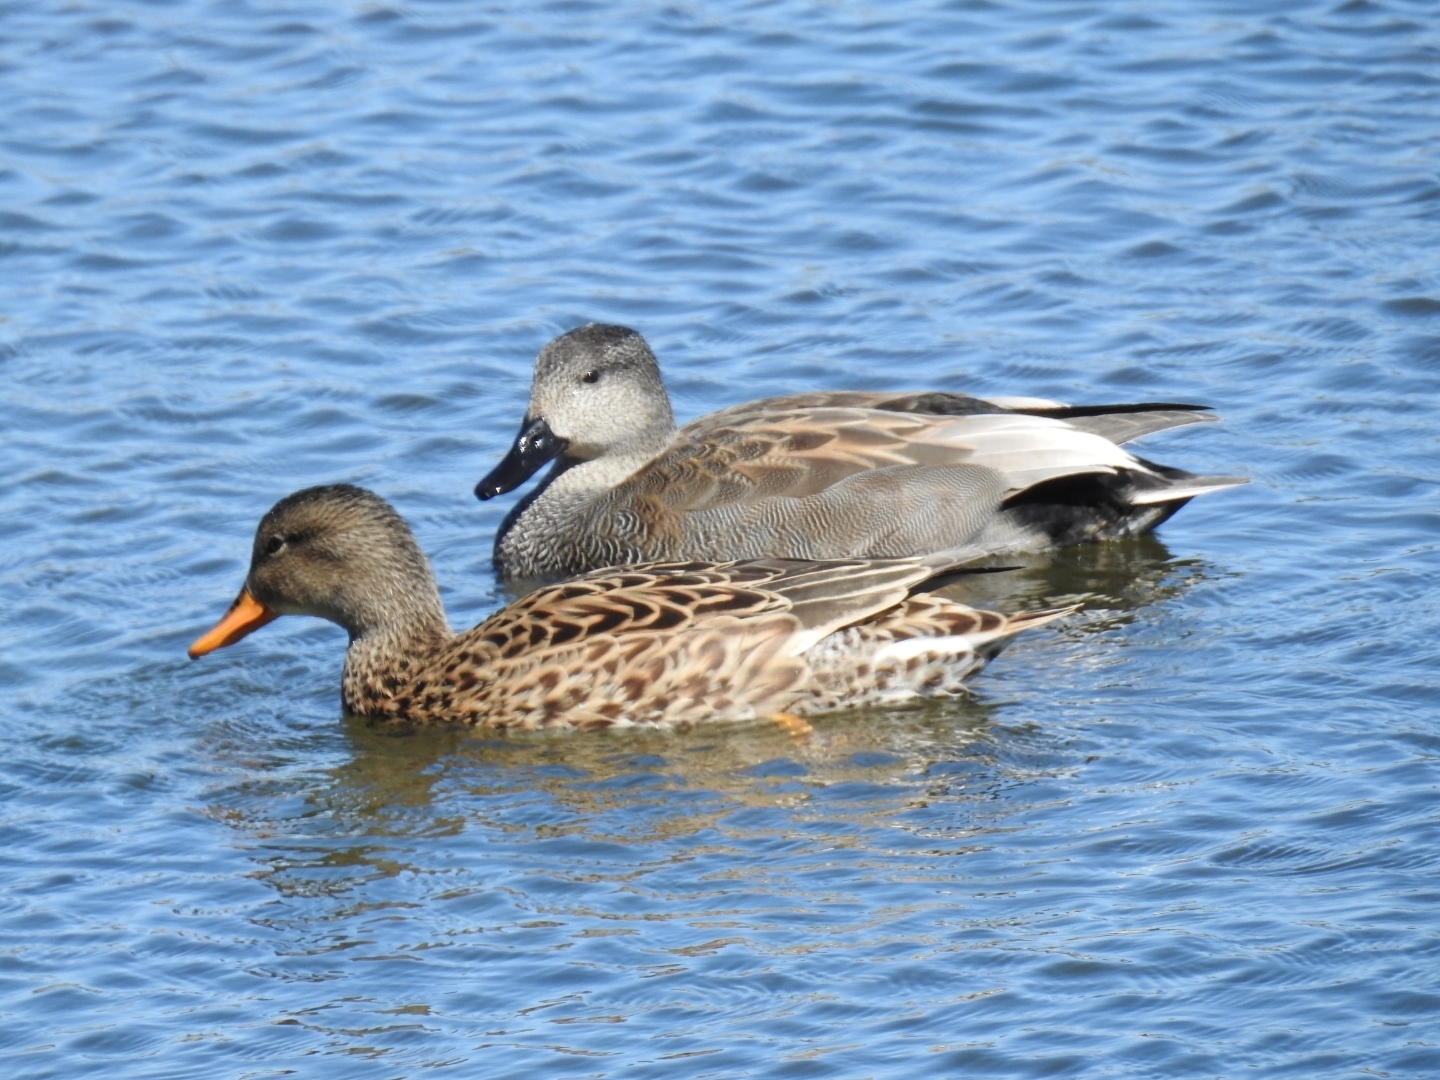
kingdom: Animalia
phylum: Chordata
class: Aves
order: Anseriformes
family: Anatidae
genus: Mareca
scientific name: Mareca strepera
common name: Gadwall
